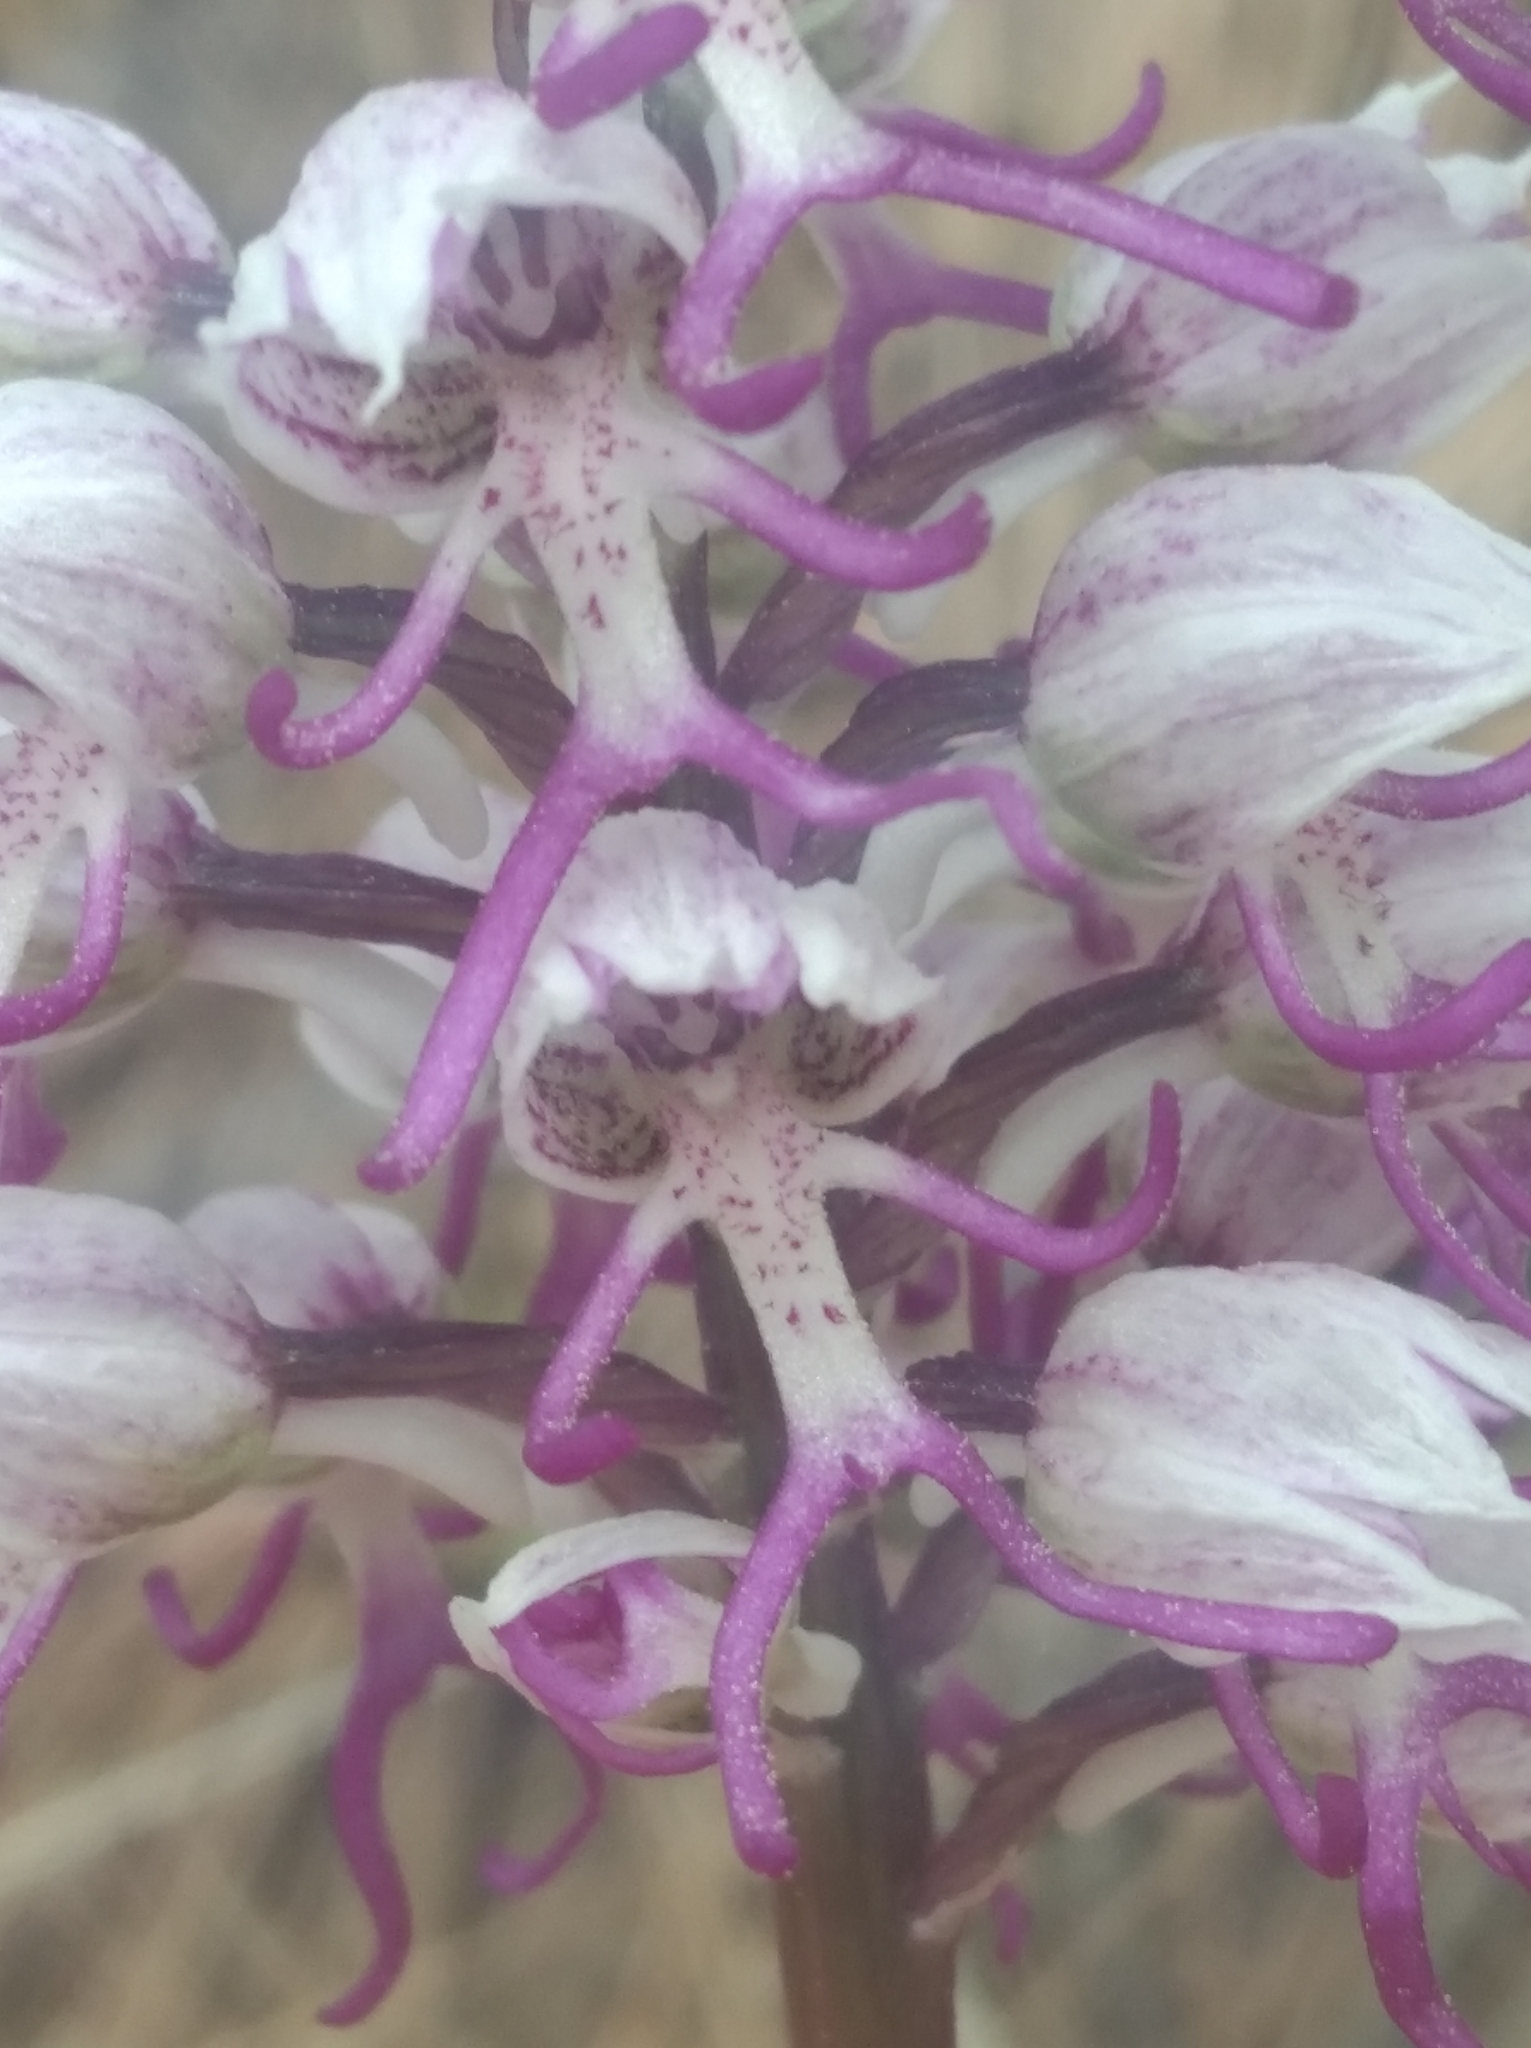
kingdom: Plantae
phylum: Tracheophyta
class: Liliopsida
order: Asparagales
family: Orchidaceae
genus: Orchis
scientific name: Orchis simia
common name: Monkey orchid
